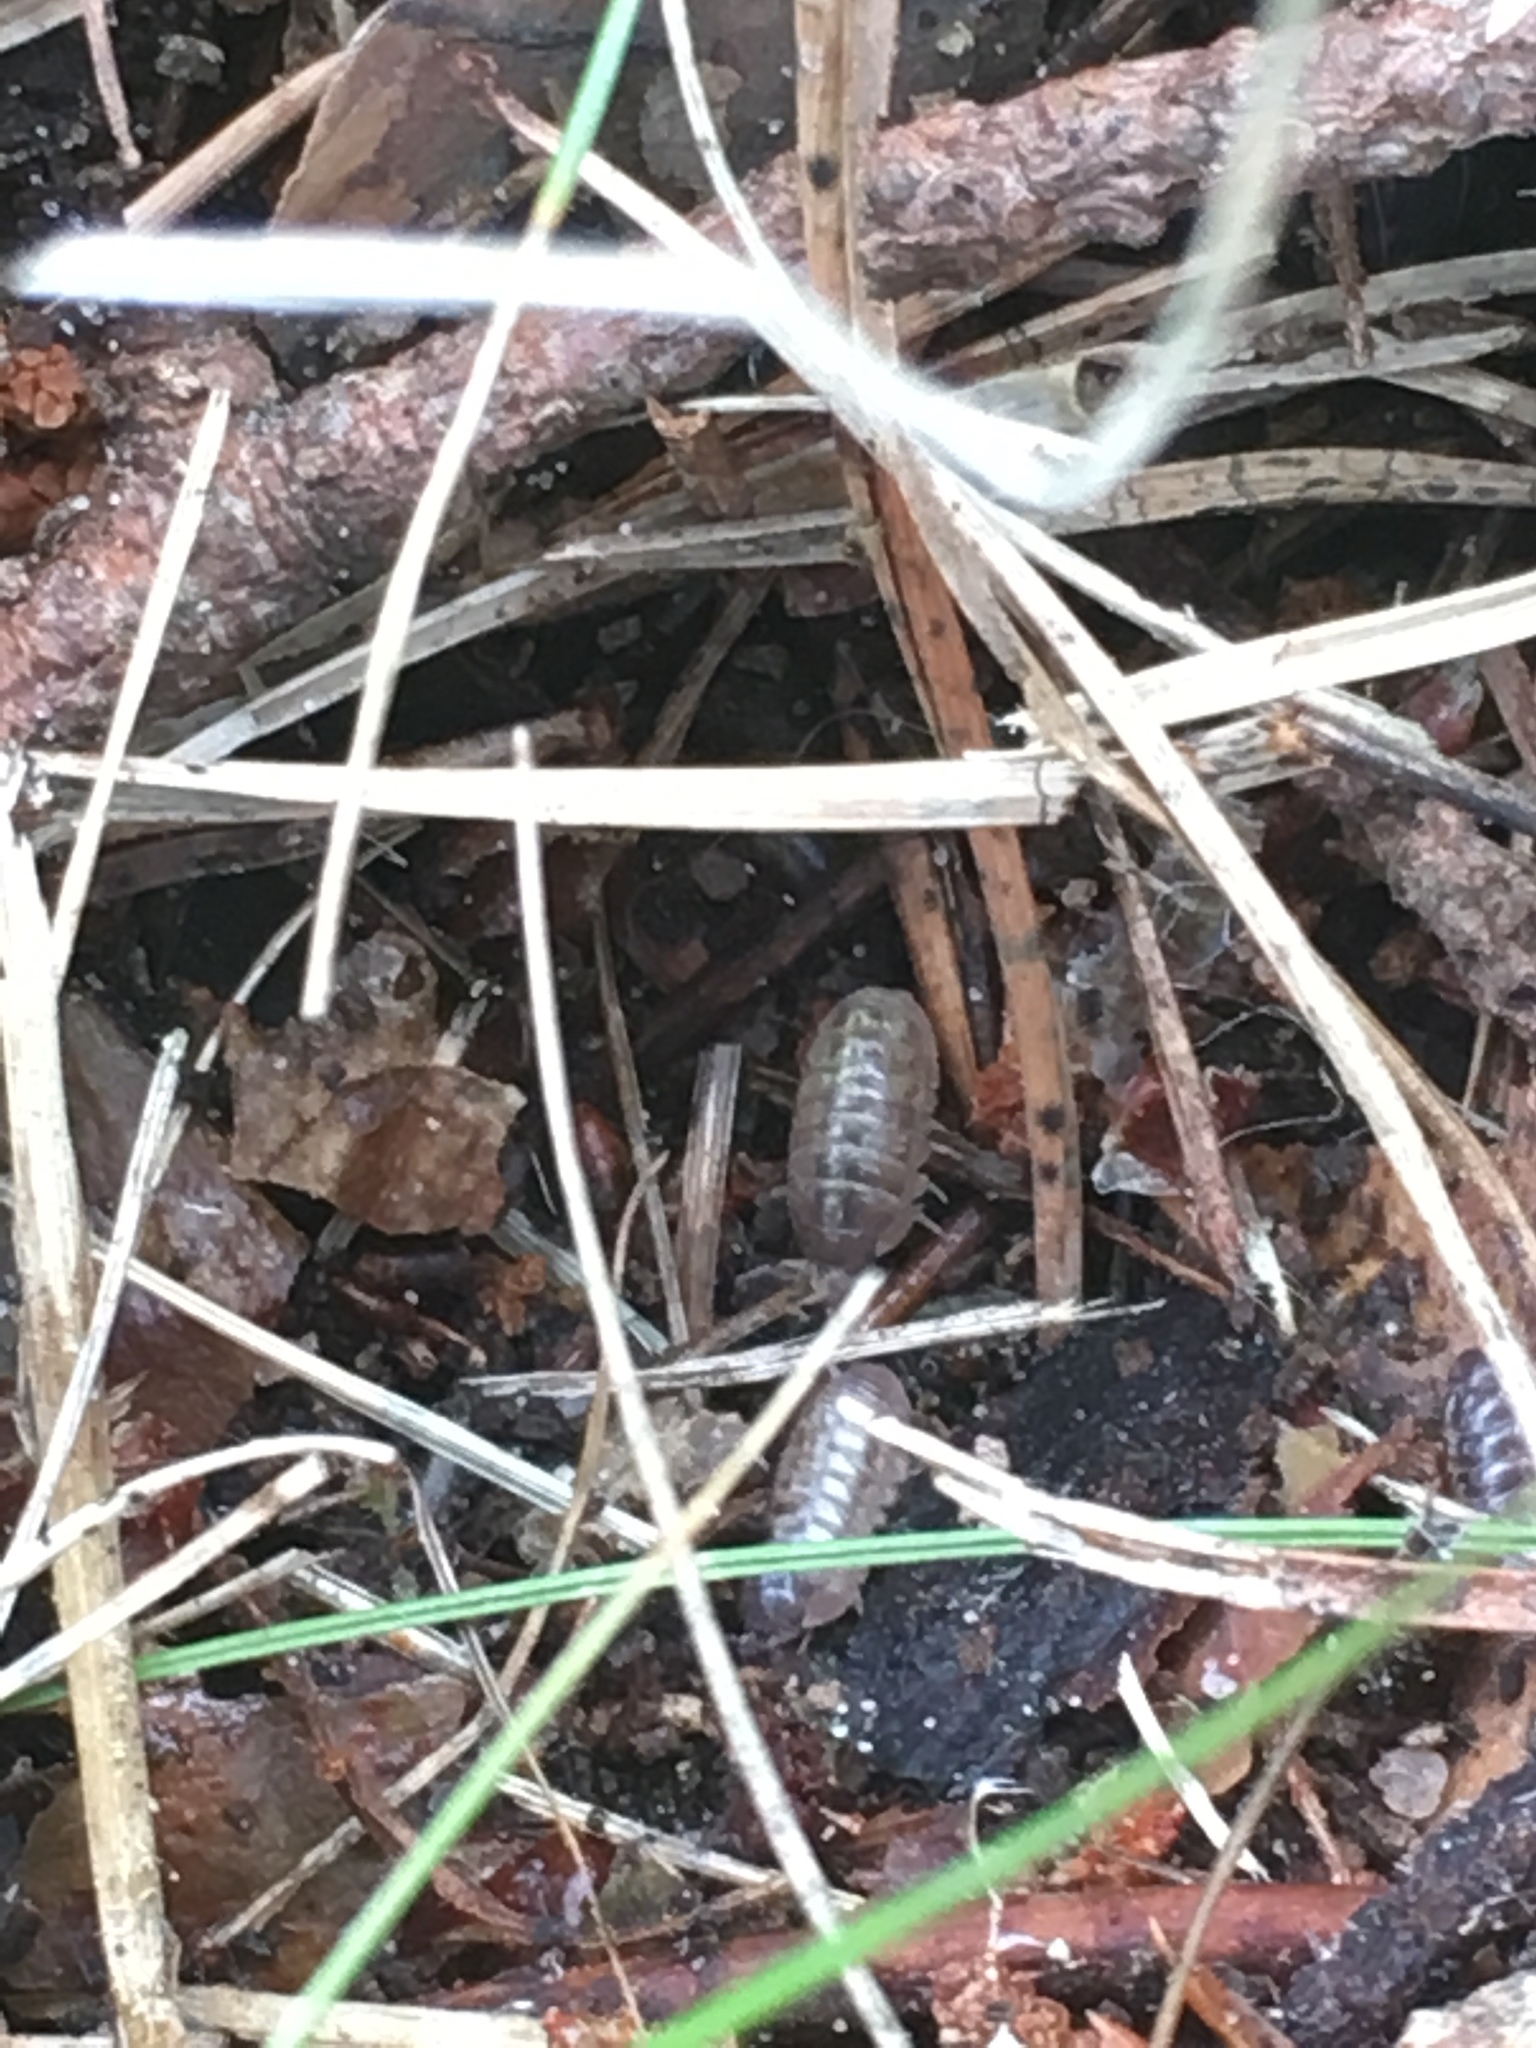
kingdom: Animalia
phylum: Arthropoda
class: Malacostraca
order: Isopoda
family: Armadillidiidae
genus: Armadillidium
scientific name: Armadillidium vulgare
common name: Common pill woodlouse
